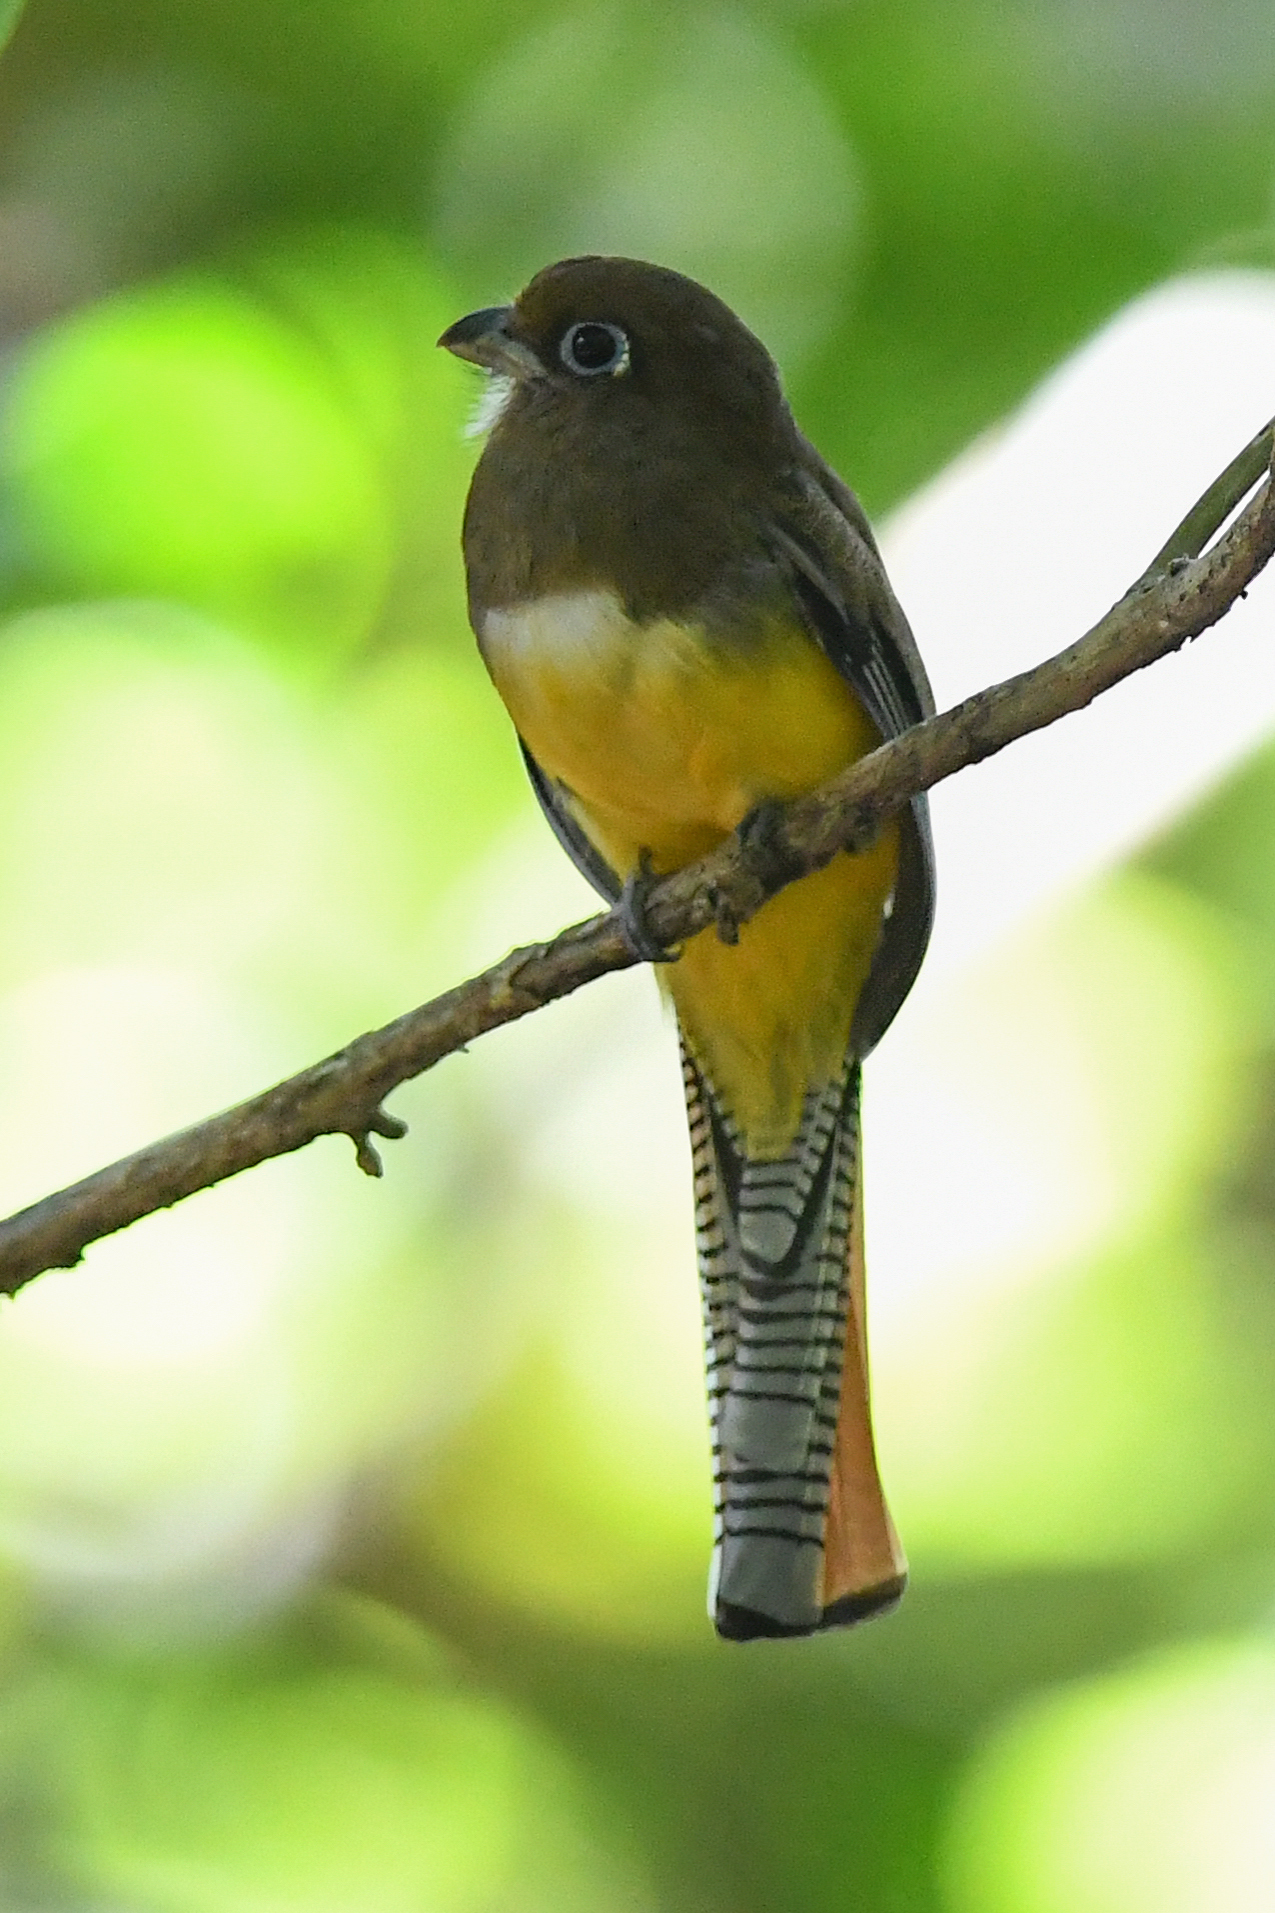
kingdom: Animalia
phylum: Chordata
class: Aves
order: Trogoniformes
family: Trogonidae
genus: Trogon
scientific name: Trogon rufus
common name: Black-throated trogon
